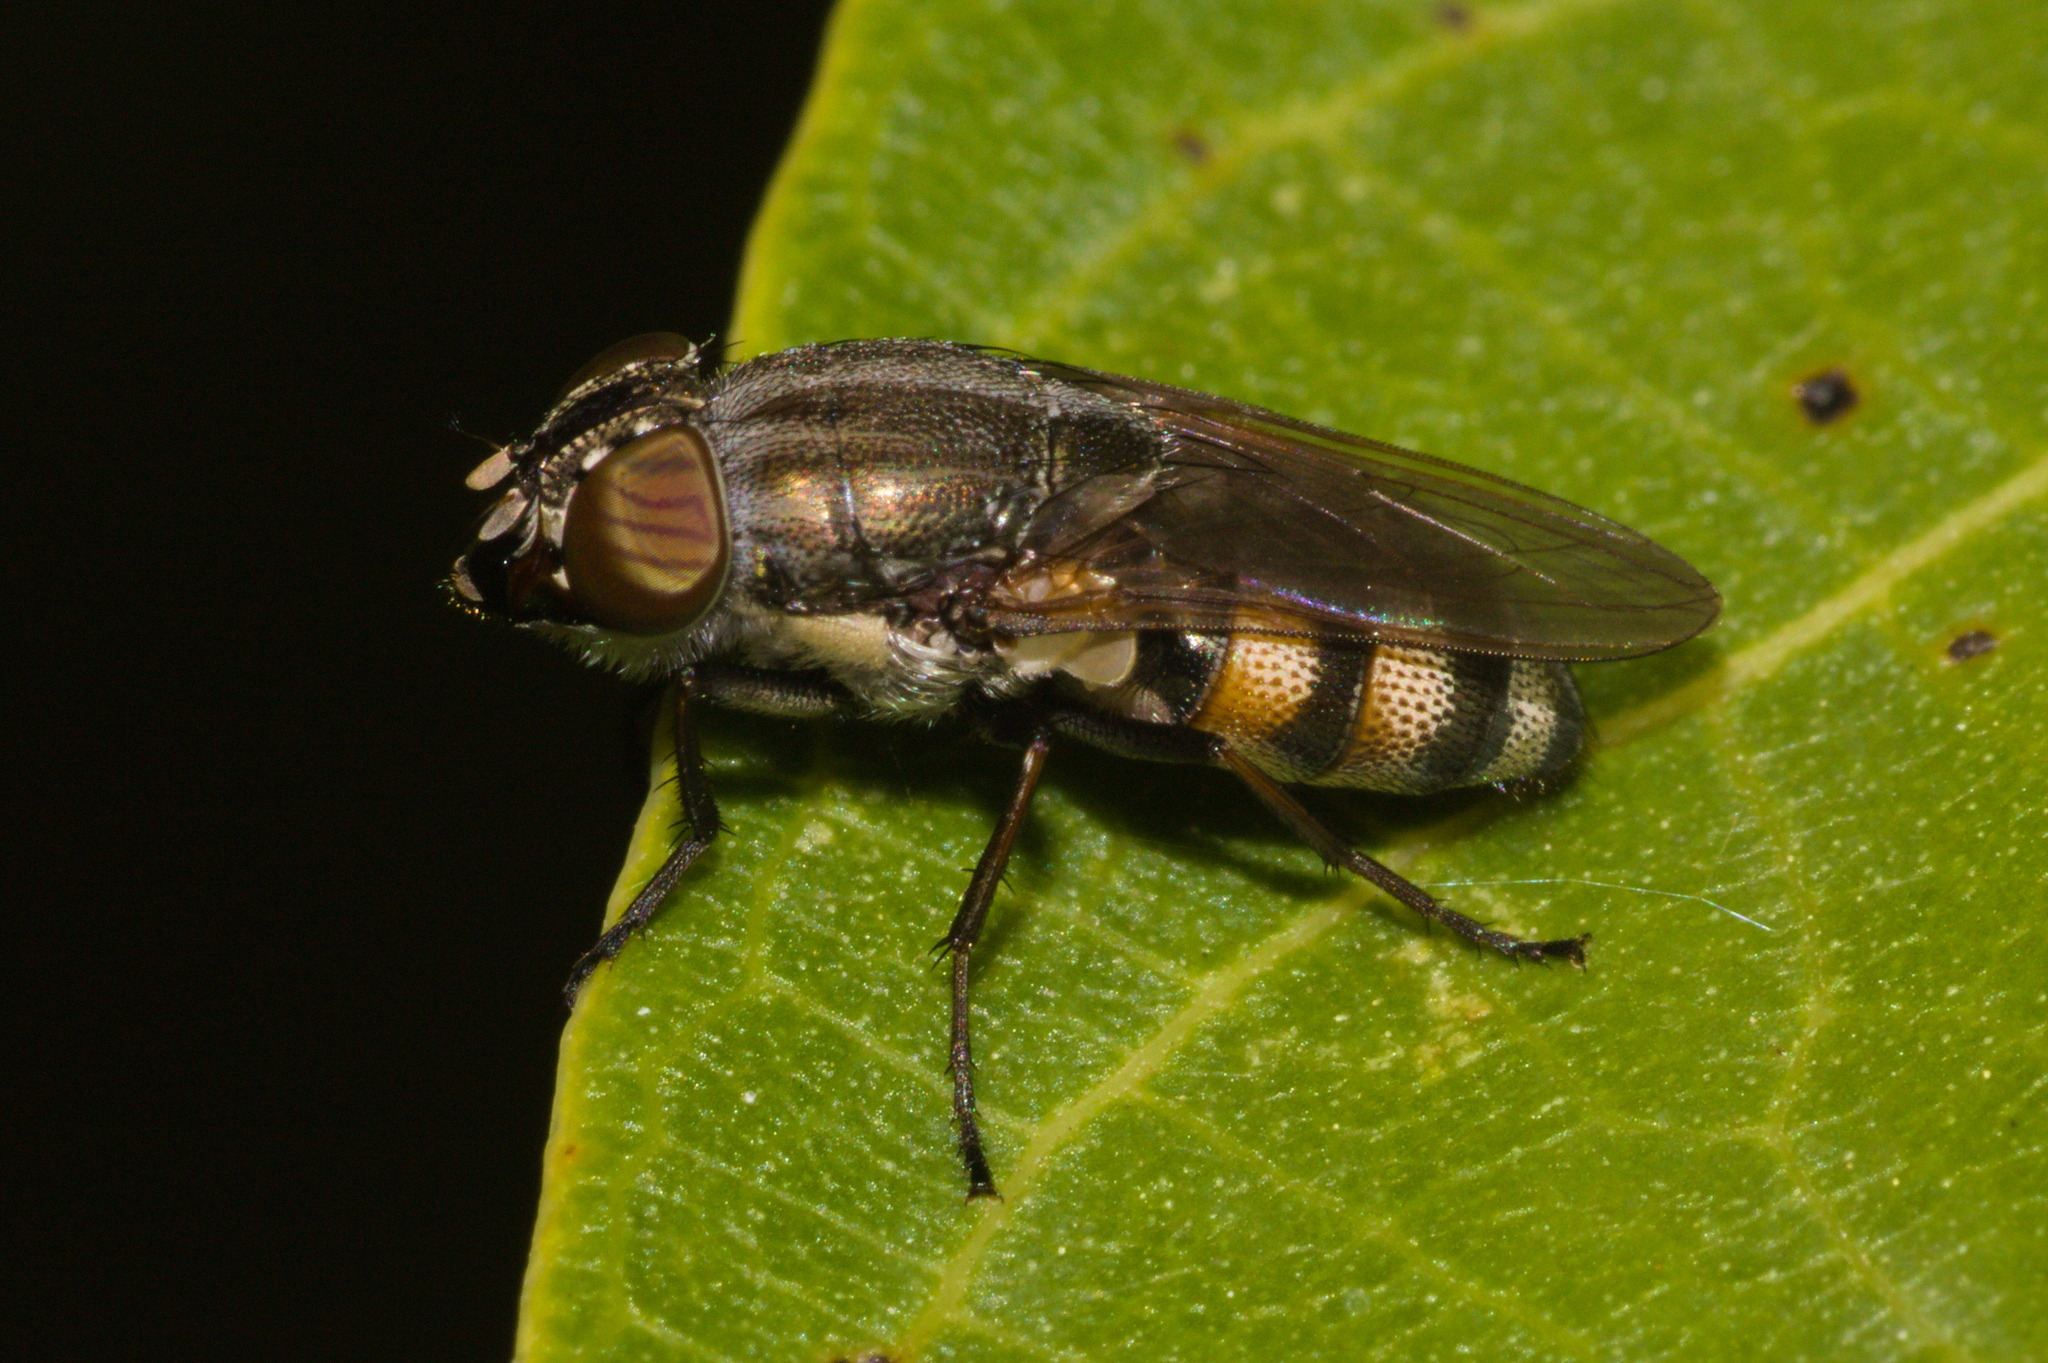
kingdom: Animalia
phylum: Arthropoda
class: Insecta
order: Diptera
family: Calliphoridae
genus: Stomorhina
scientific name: Stomorhina lunata
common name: Locust blowfly
